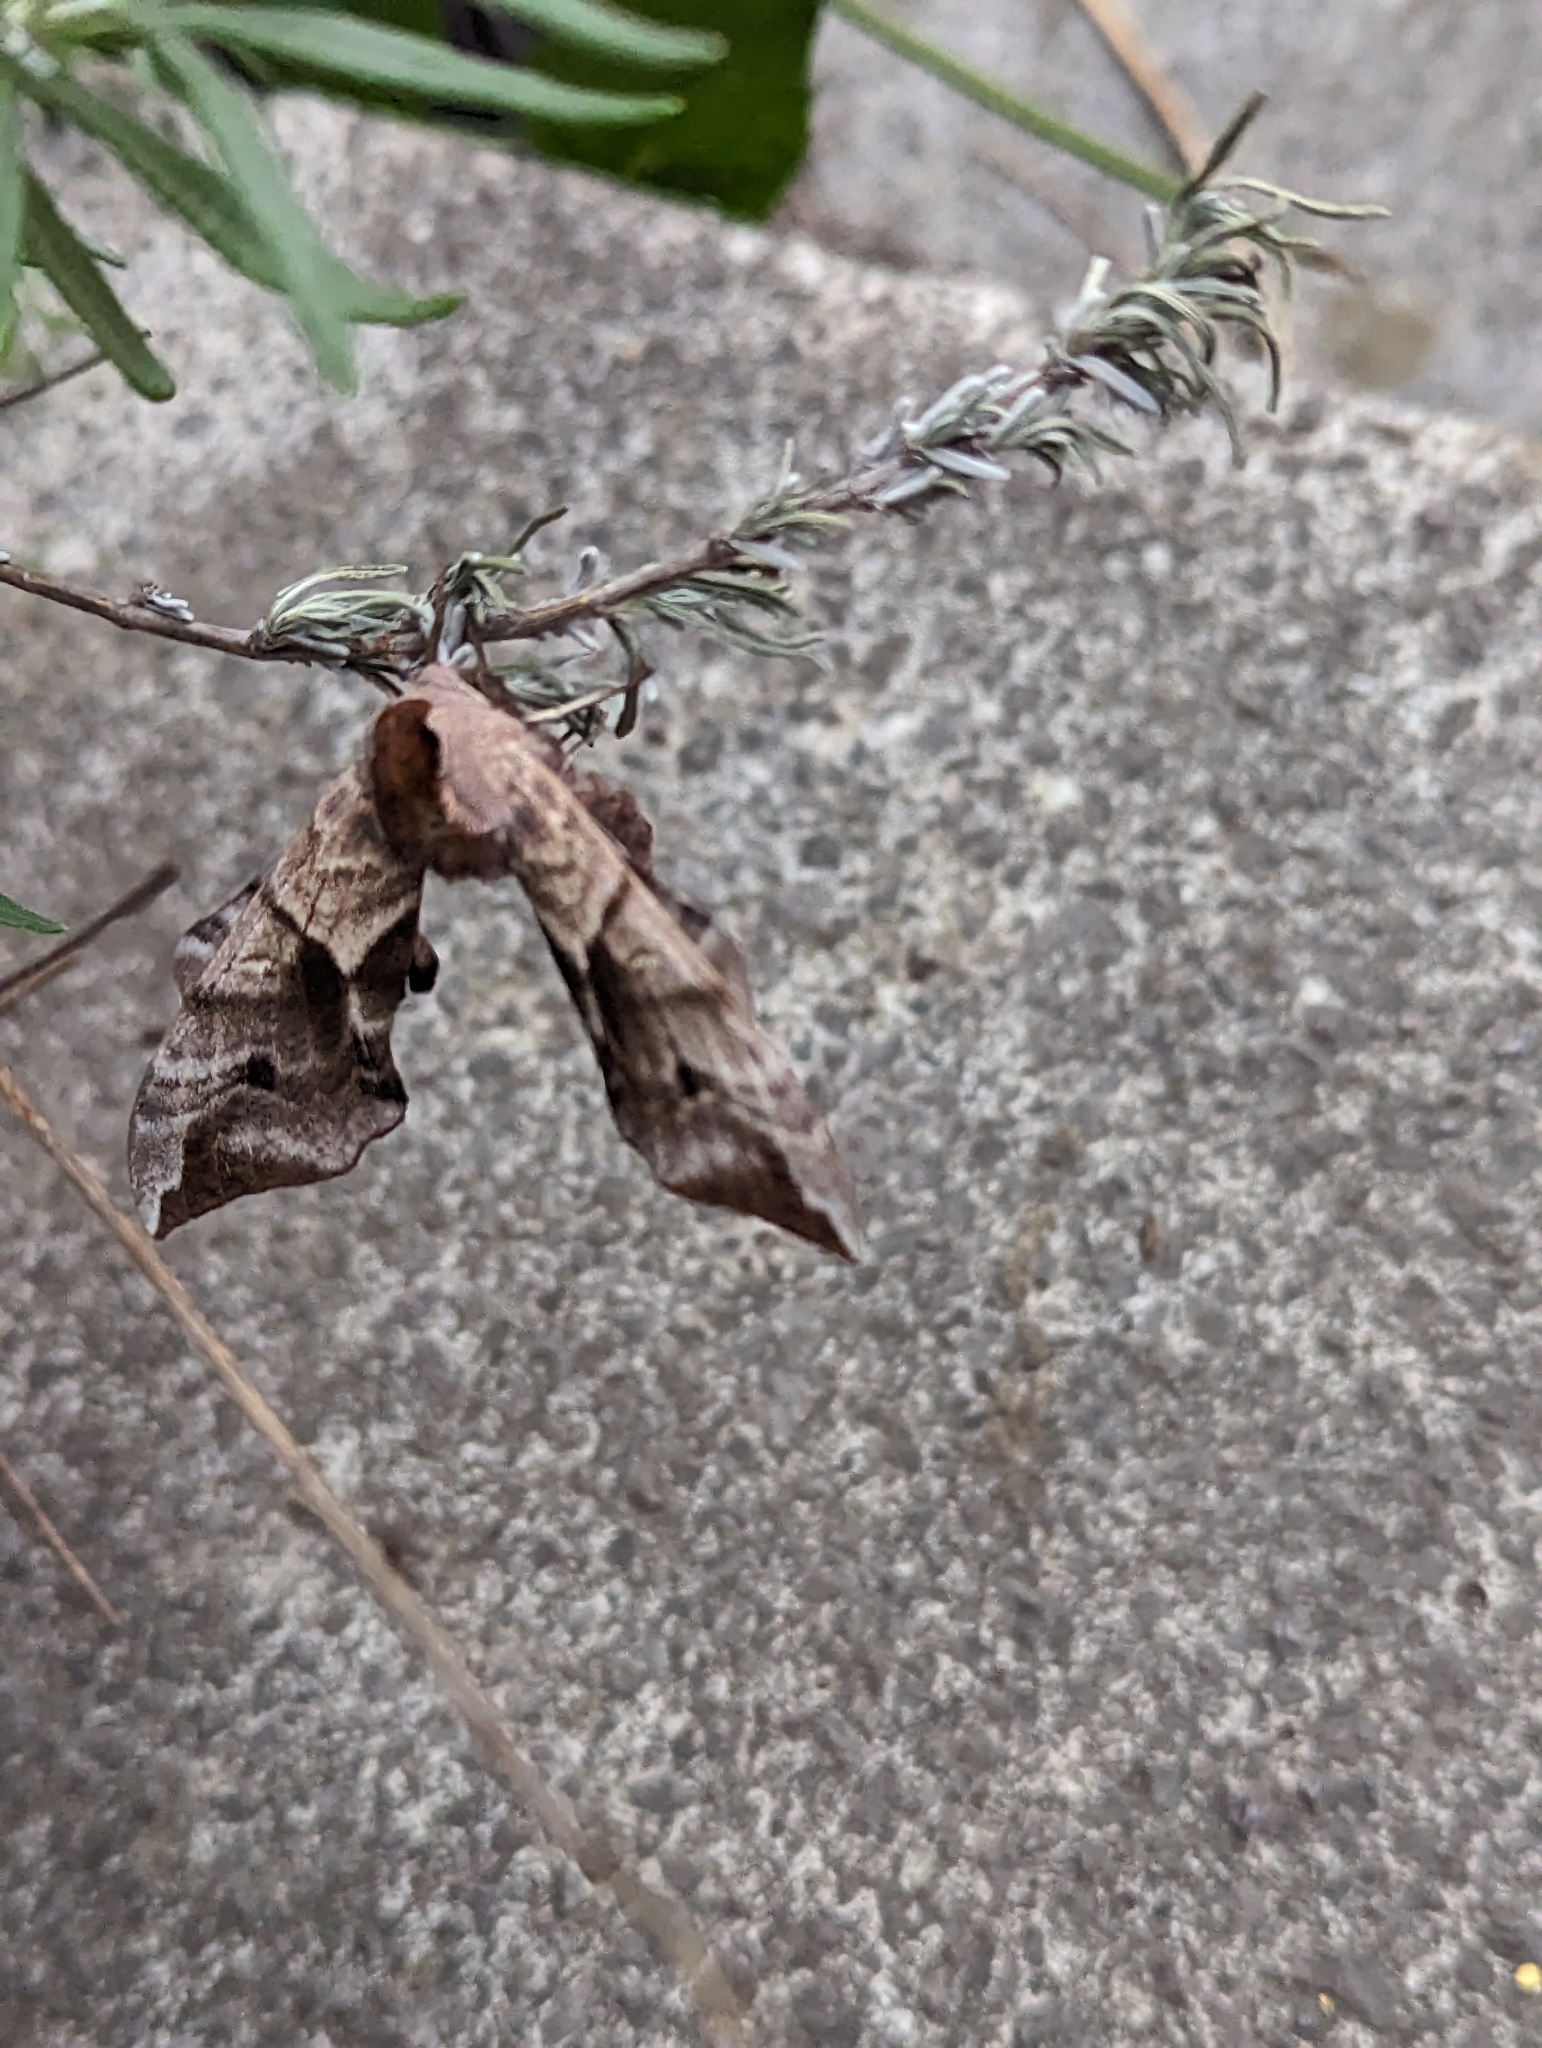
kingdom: Animalia
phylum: Arthropoda
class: Insecta
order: Lepidoptera
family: Sphingidae
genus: Smerinthus
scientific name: Smerinthus ocellata
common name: Eyed hawk-moth
